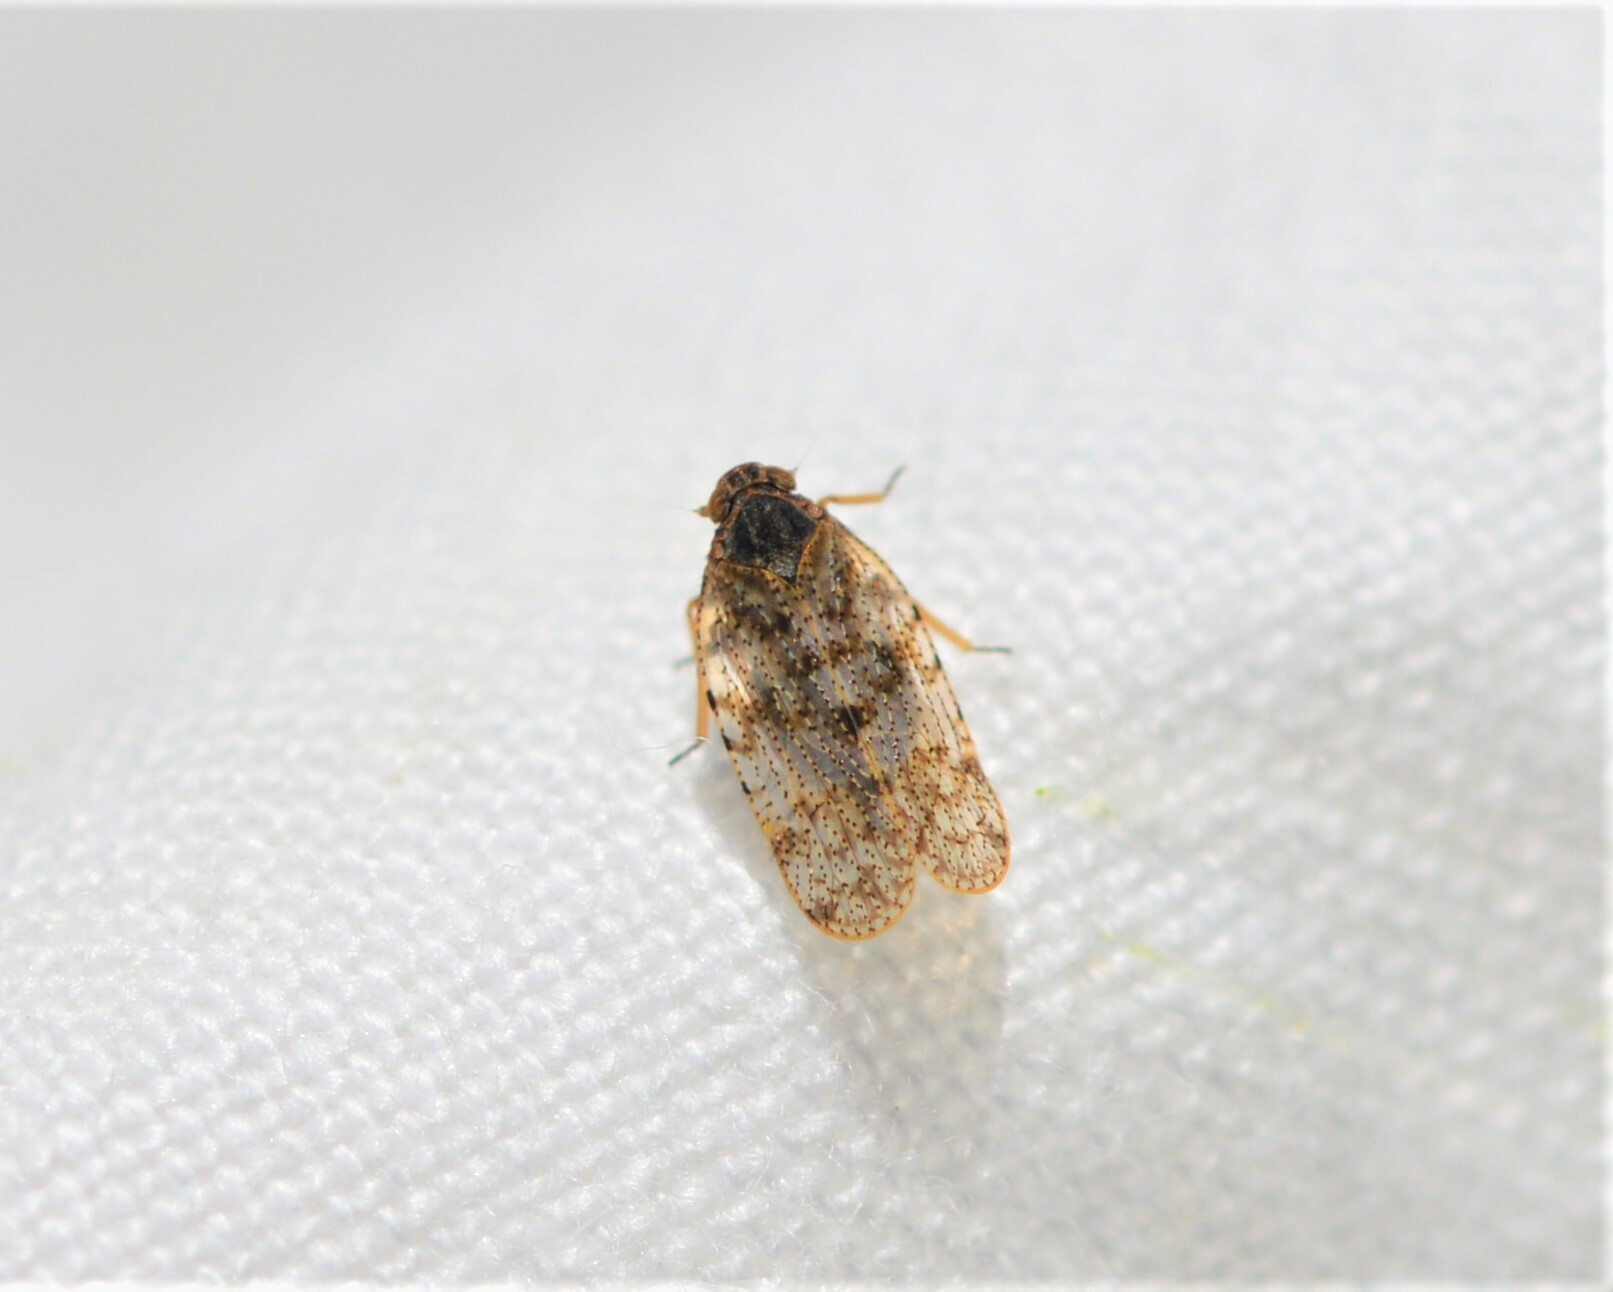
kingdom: Animalia
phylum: Arthropoda
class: Insecta
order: Hemiptera
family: Cixiidae
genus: Tachycixius
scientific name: Tachycixius pilosus
